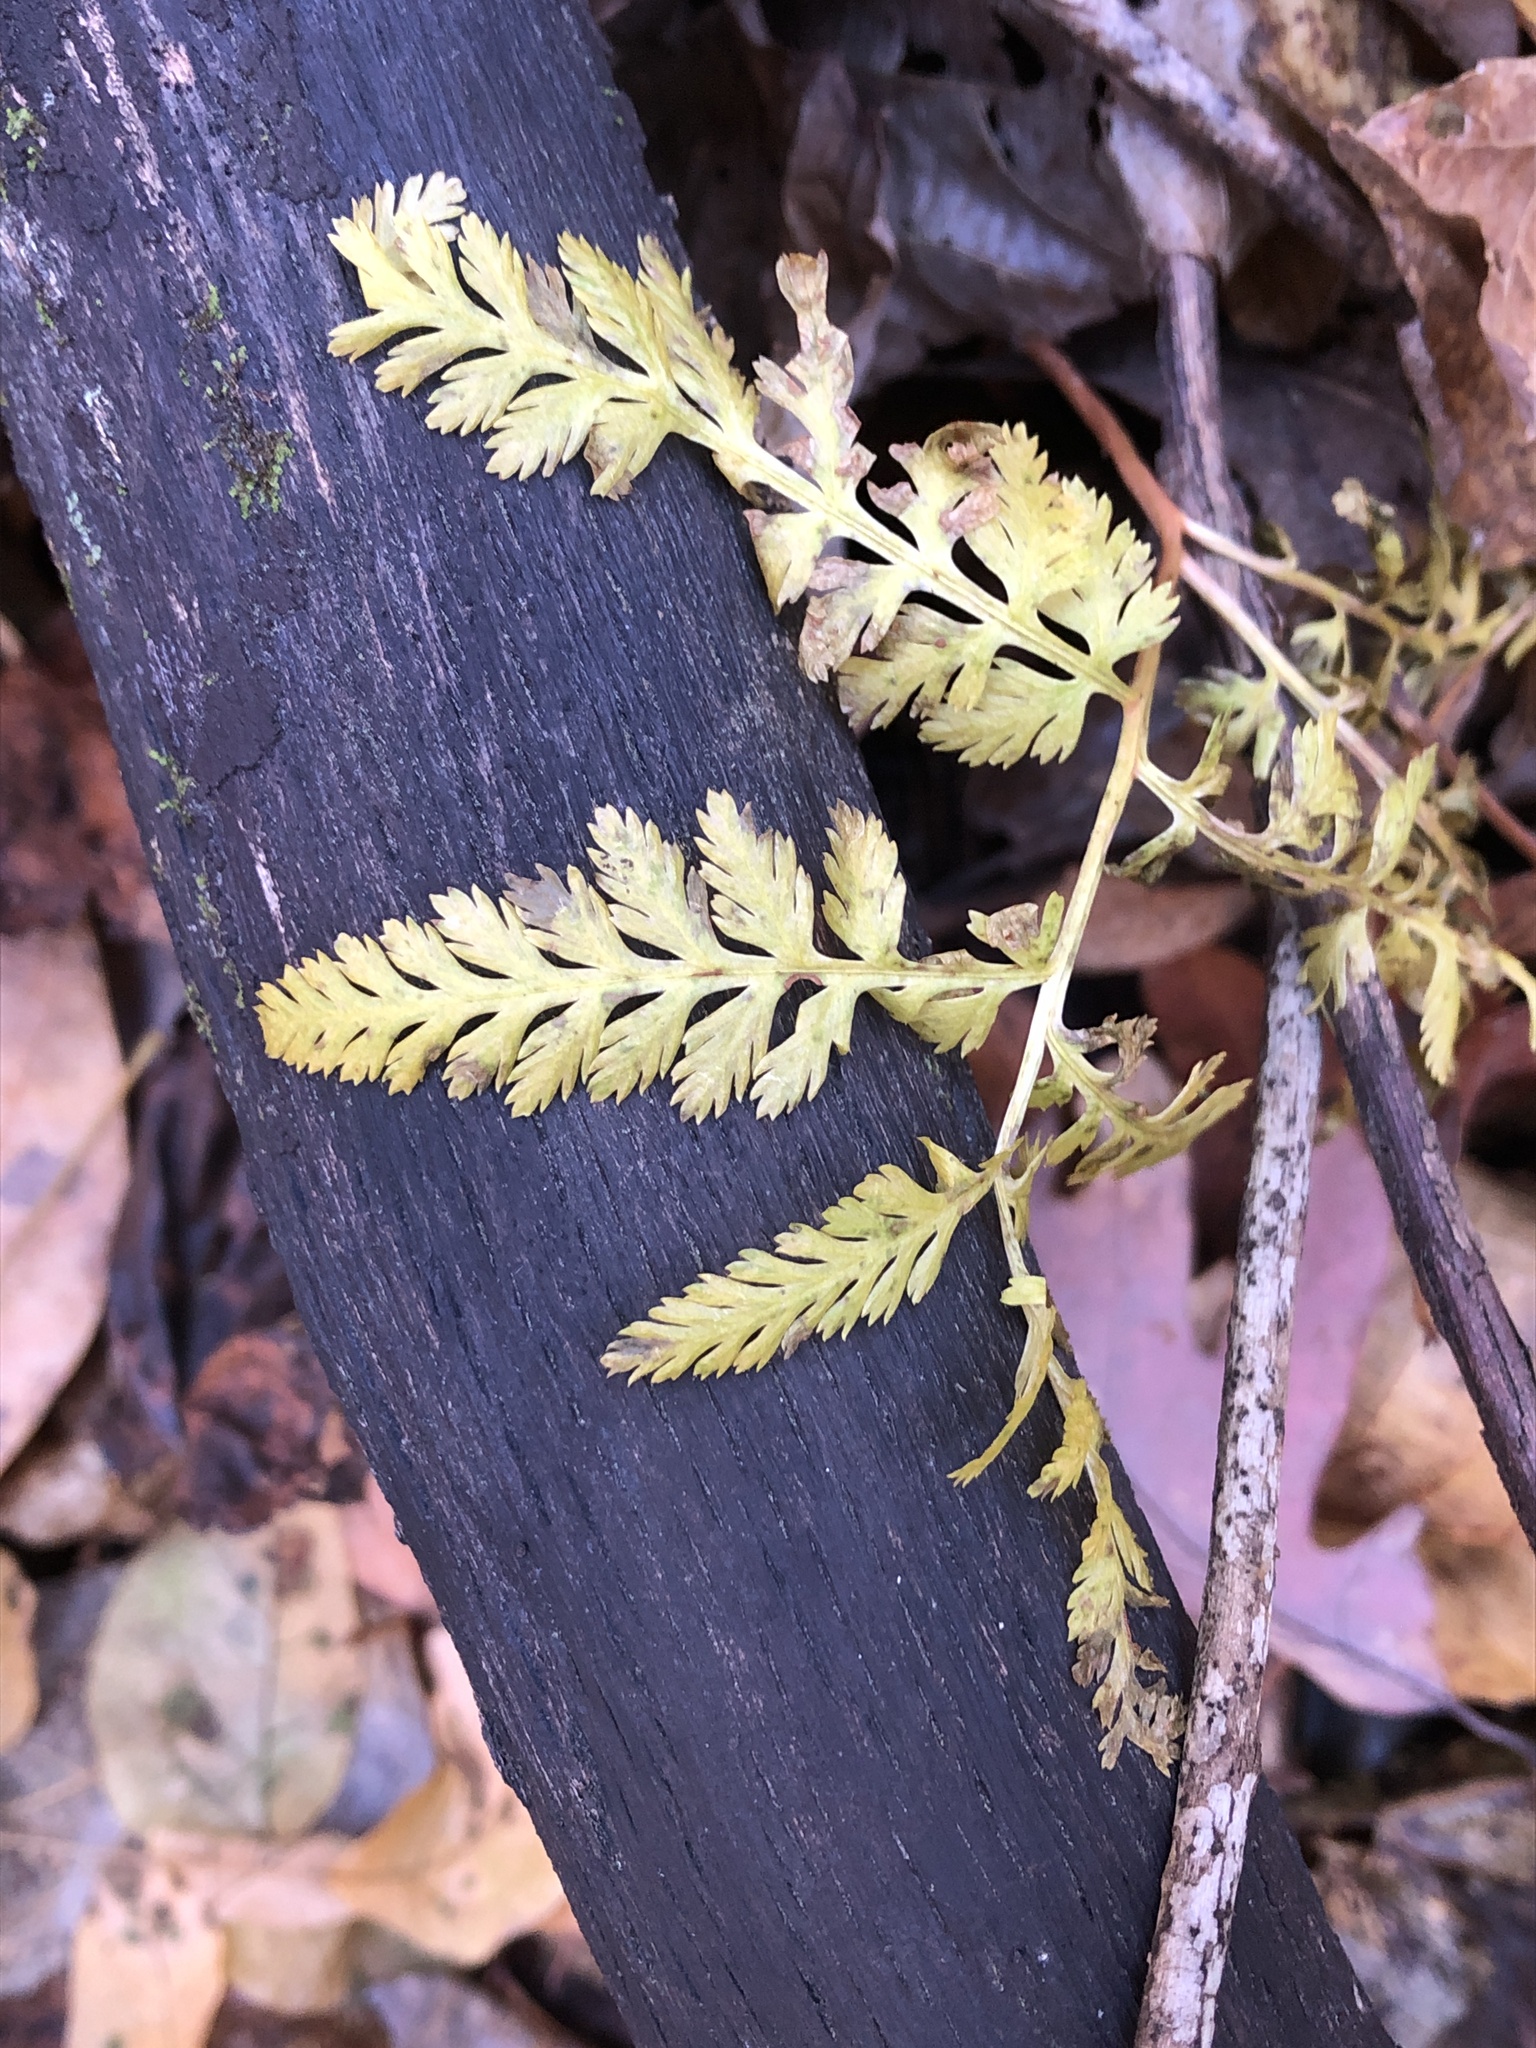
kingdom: Plantae
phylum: Tracheophyta
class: Polypodiopsida
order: Ophioglossales
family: Ophioglossaceae
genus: Botrypus
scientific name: Botrypus virginianus
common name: Common grapefern
